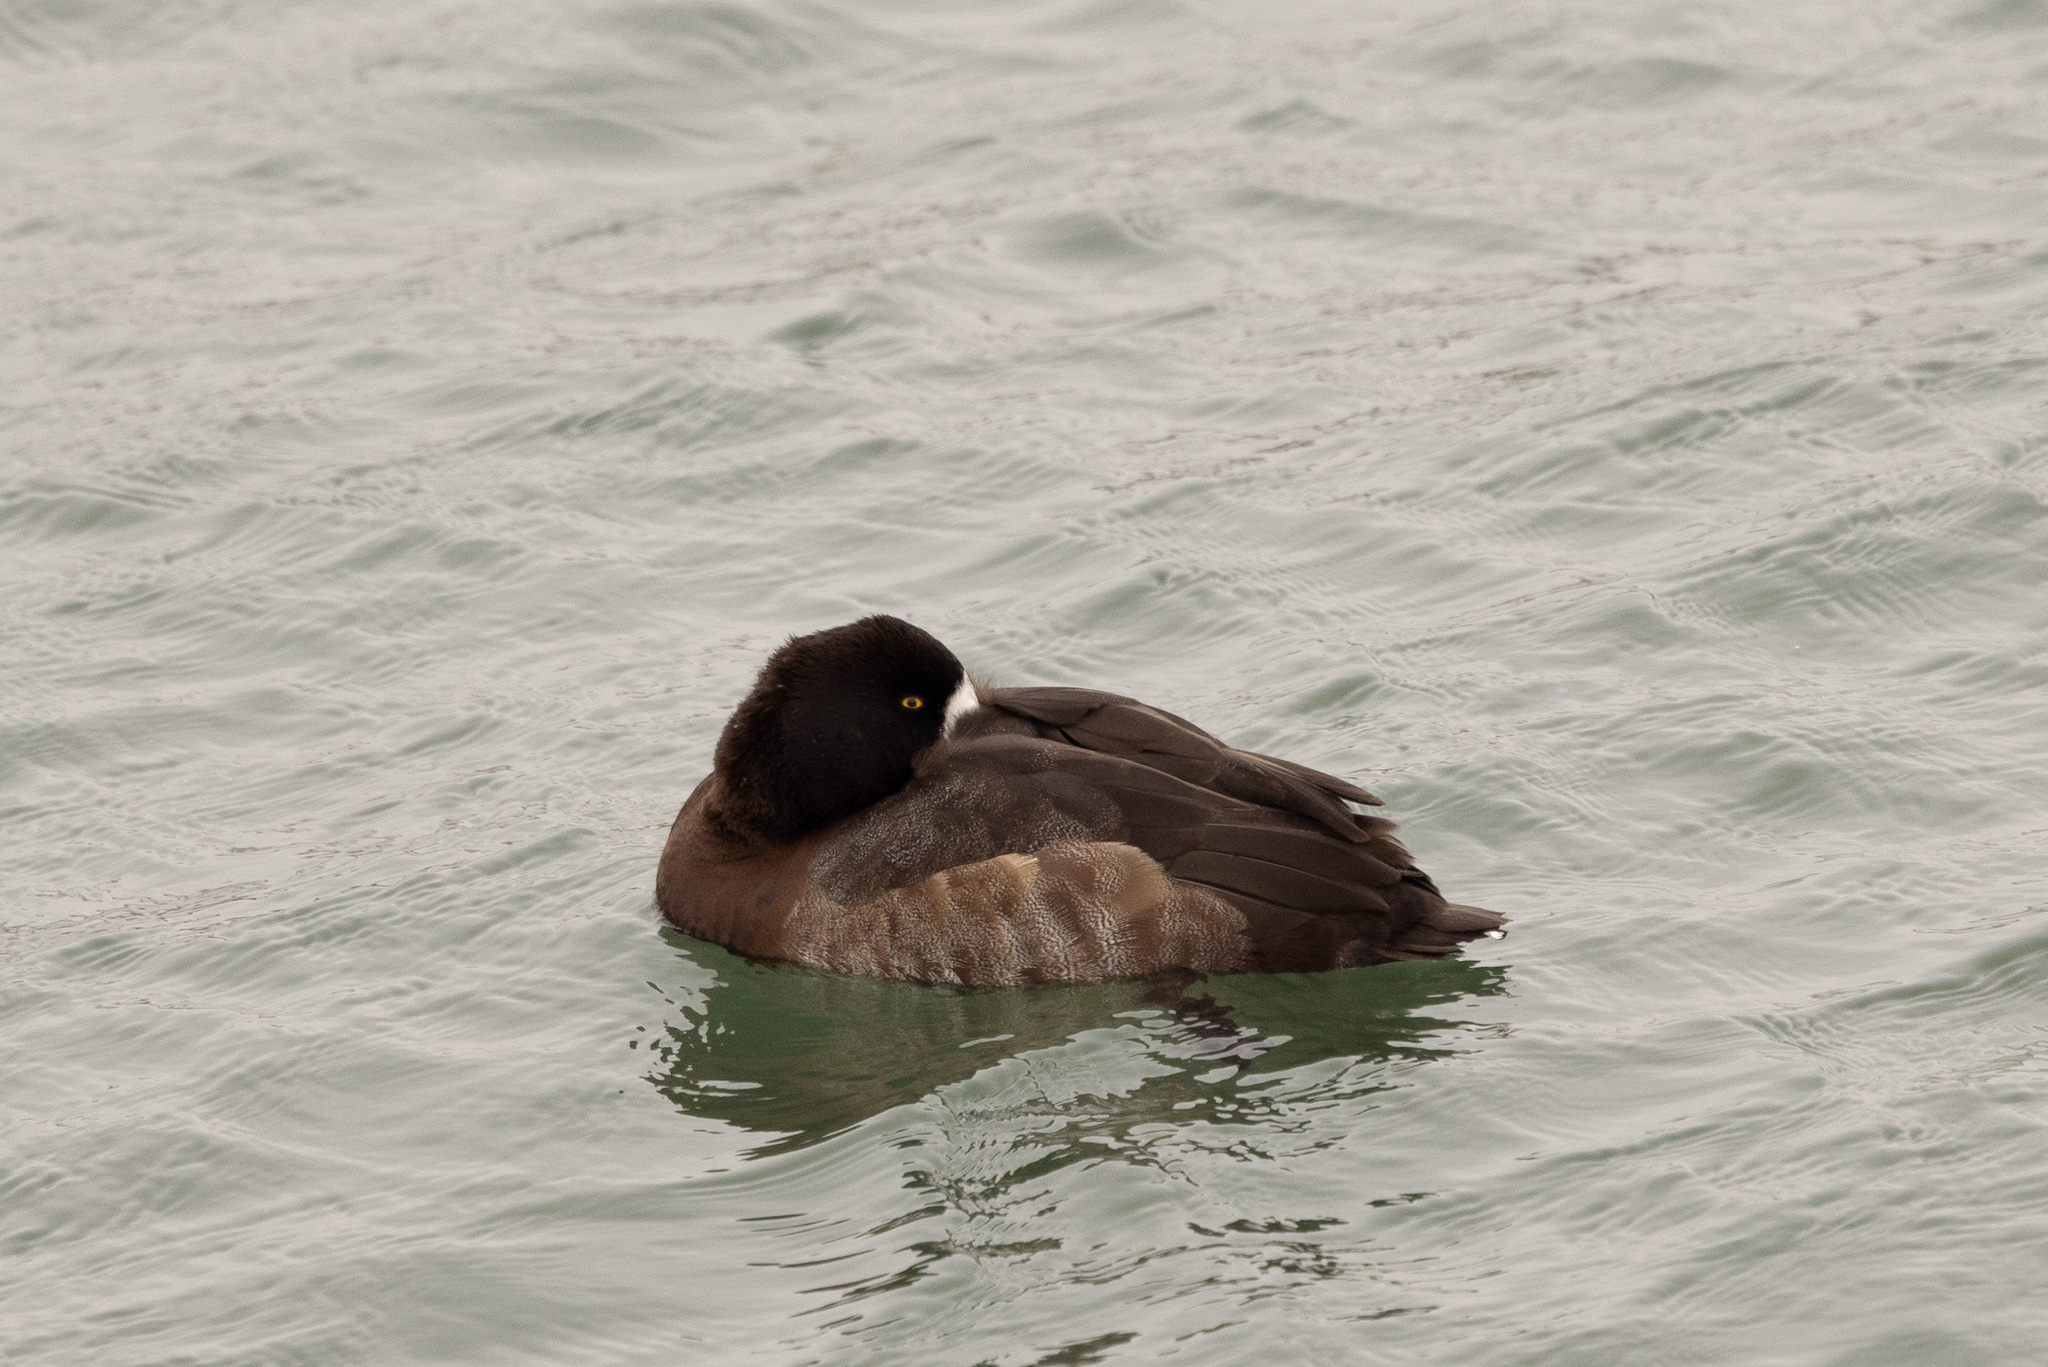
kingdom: Animalia
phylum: Chordata
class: Aves
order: Anseriformes
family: Anatidae
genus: Aythya
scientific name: Aythya affinis
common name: Lesser scaup
